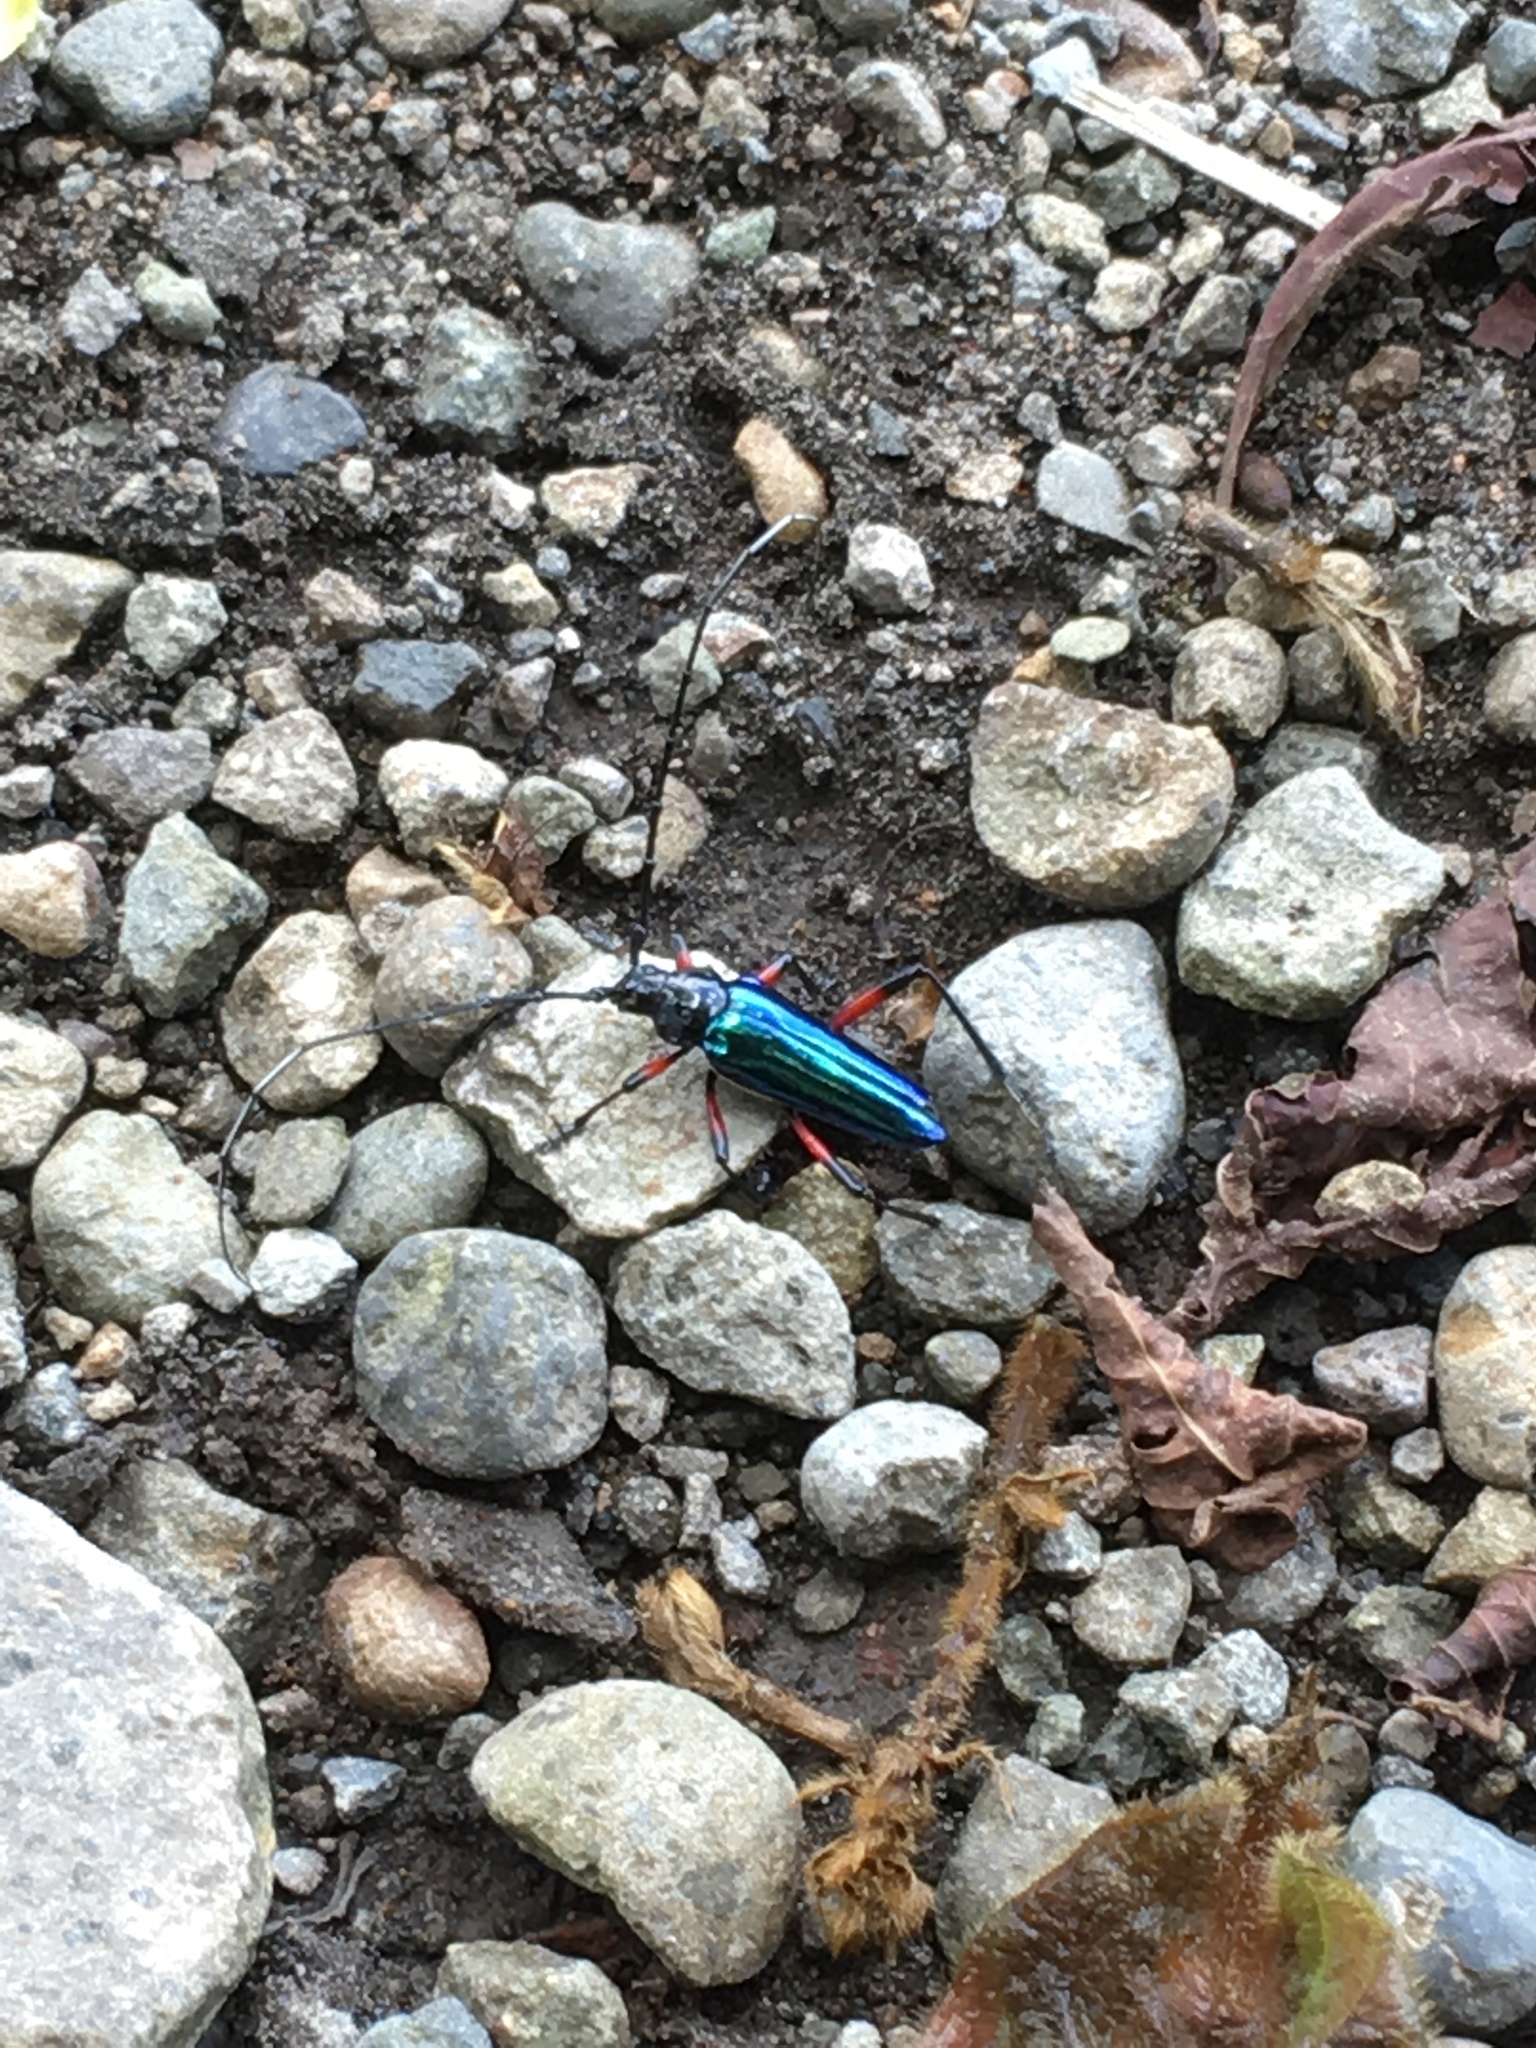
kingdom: Animalia
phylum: Arthropoda
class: Insecta
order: Coleoptera
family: Cerambycidae
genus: Callistochroma
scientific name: Callistochroma rutilans
